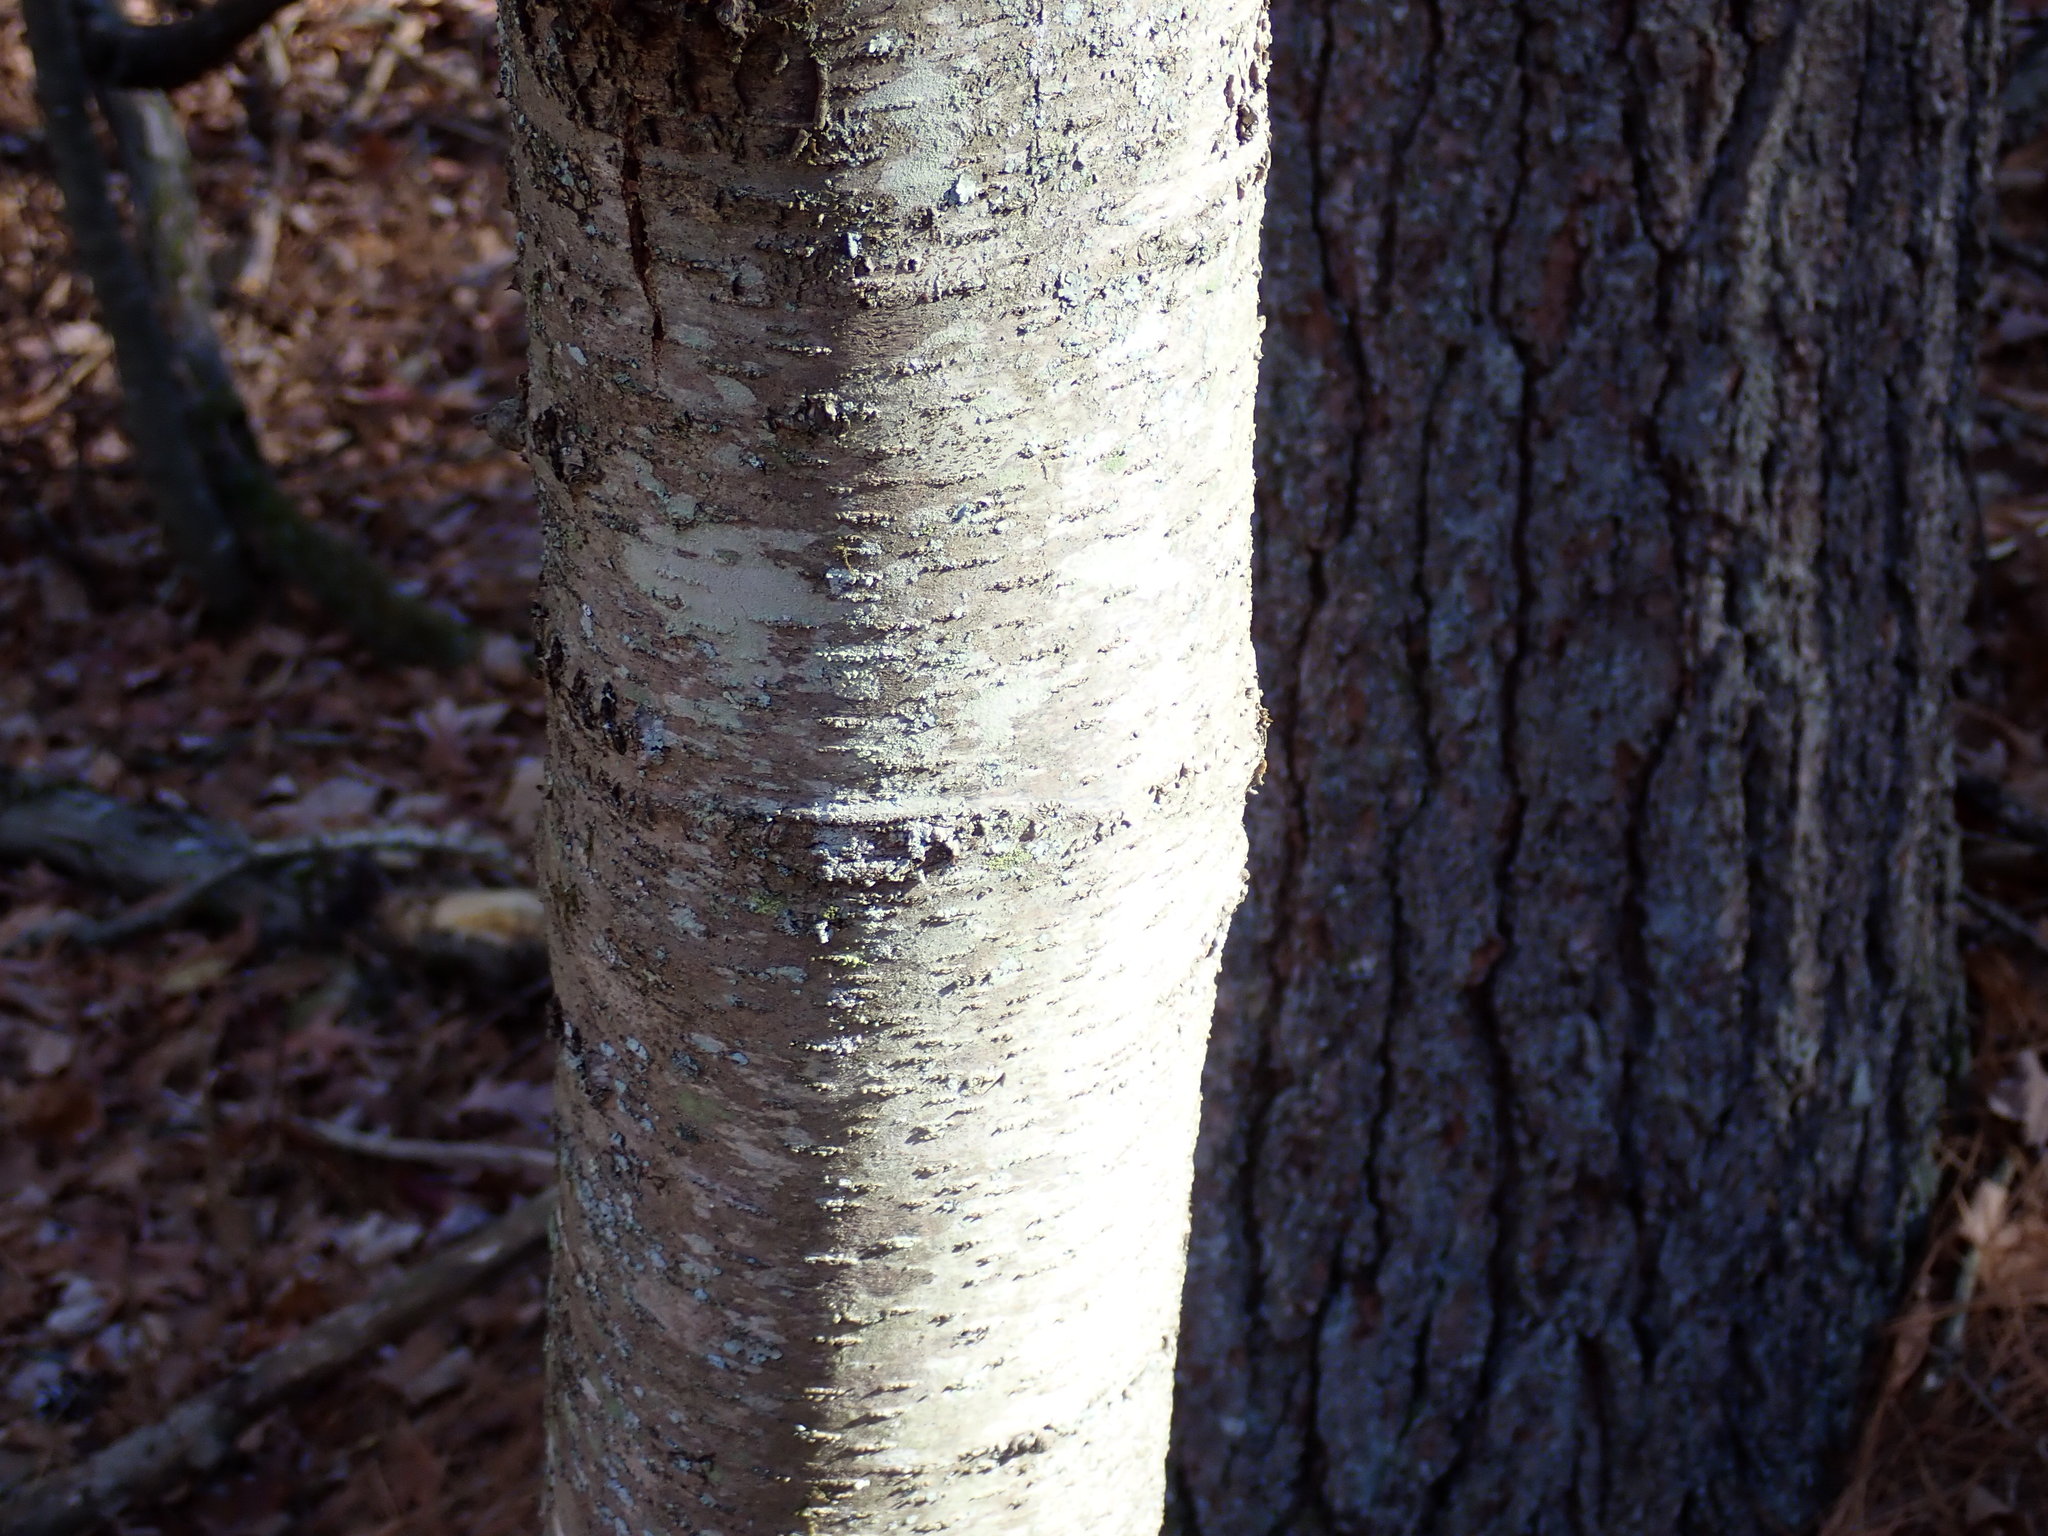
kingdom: Plantae
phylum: Tracheophyta
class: Magnoliopsida
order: Fagales
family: Betulaceae
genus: Betula
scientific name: Betula lenta
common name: Black birch
